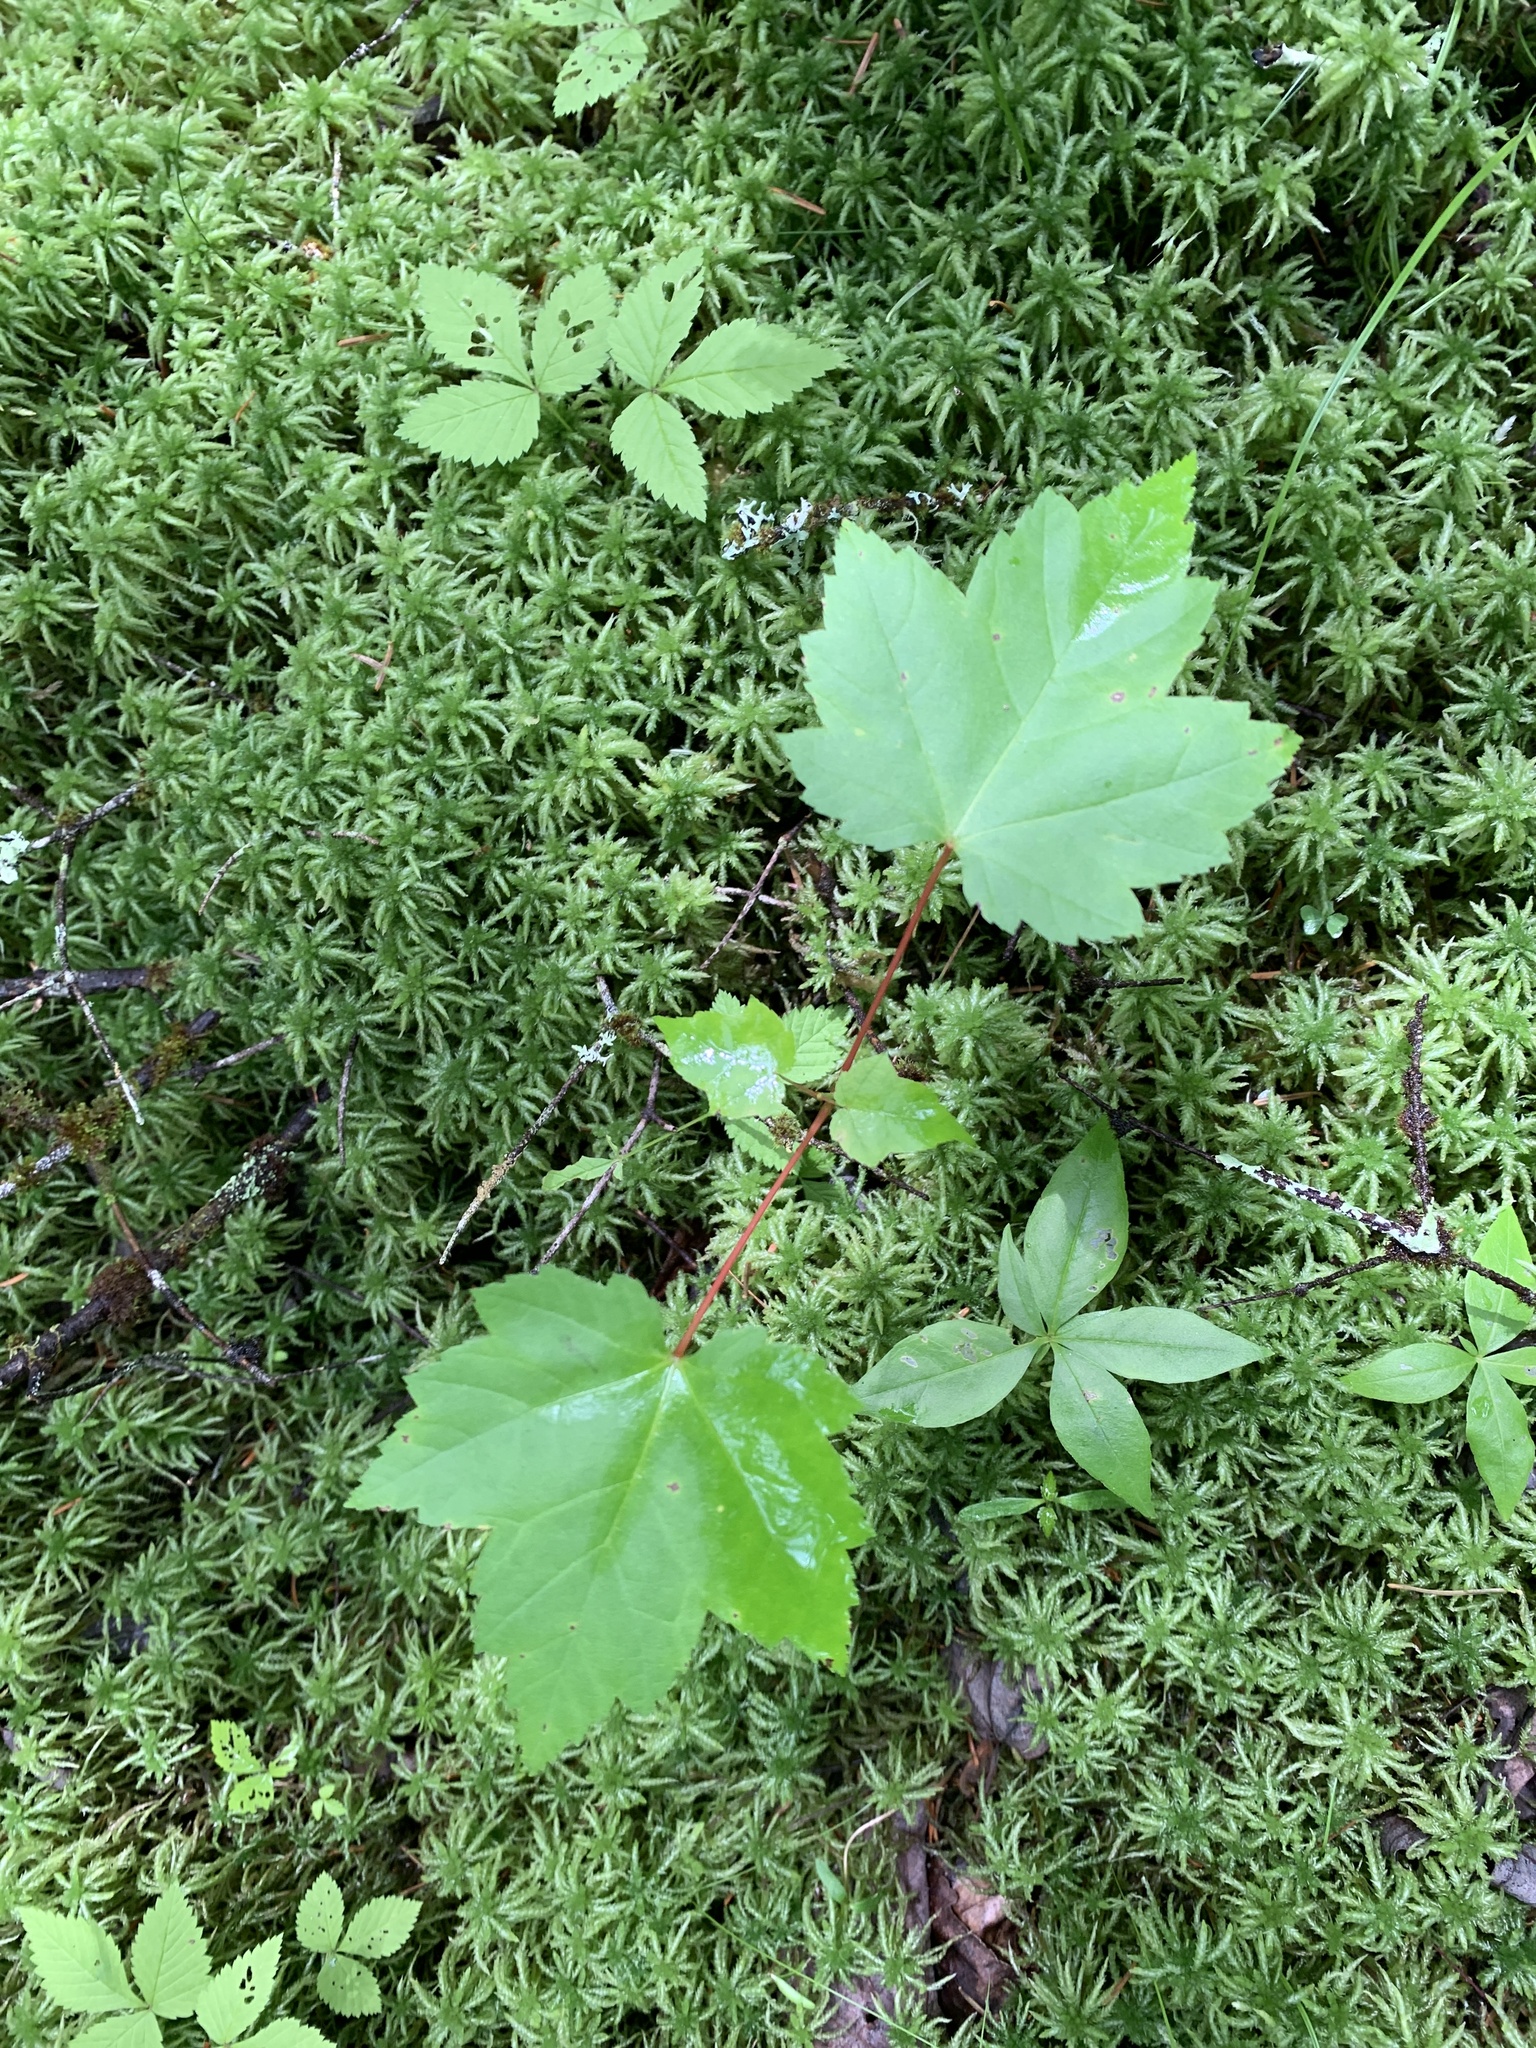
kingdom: Plantae
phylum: Tracheophyta
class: Magnoliopsida
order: Sapindales
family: Sapindaceae
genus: Acer
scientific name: Acer rubrum
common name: Red maple
